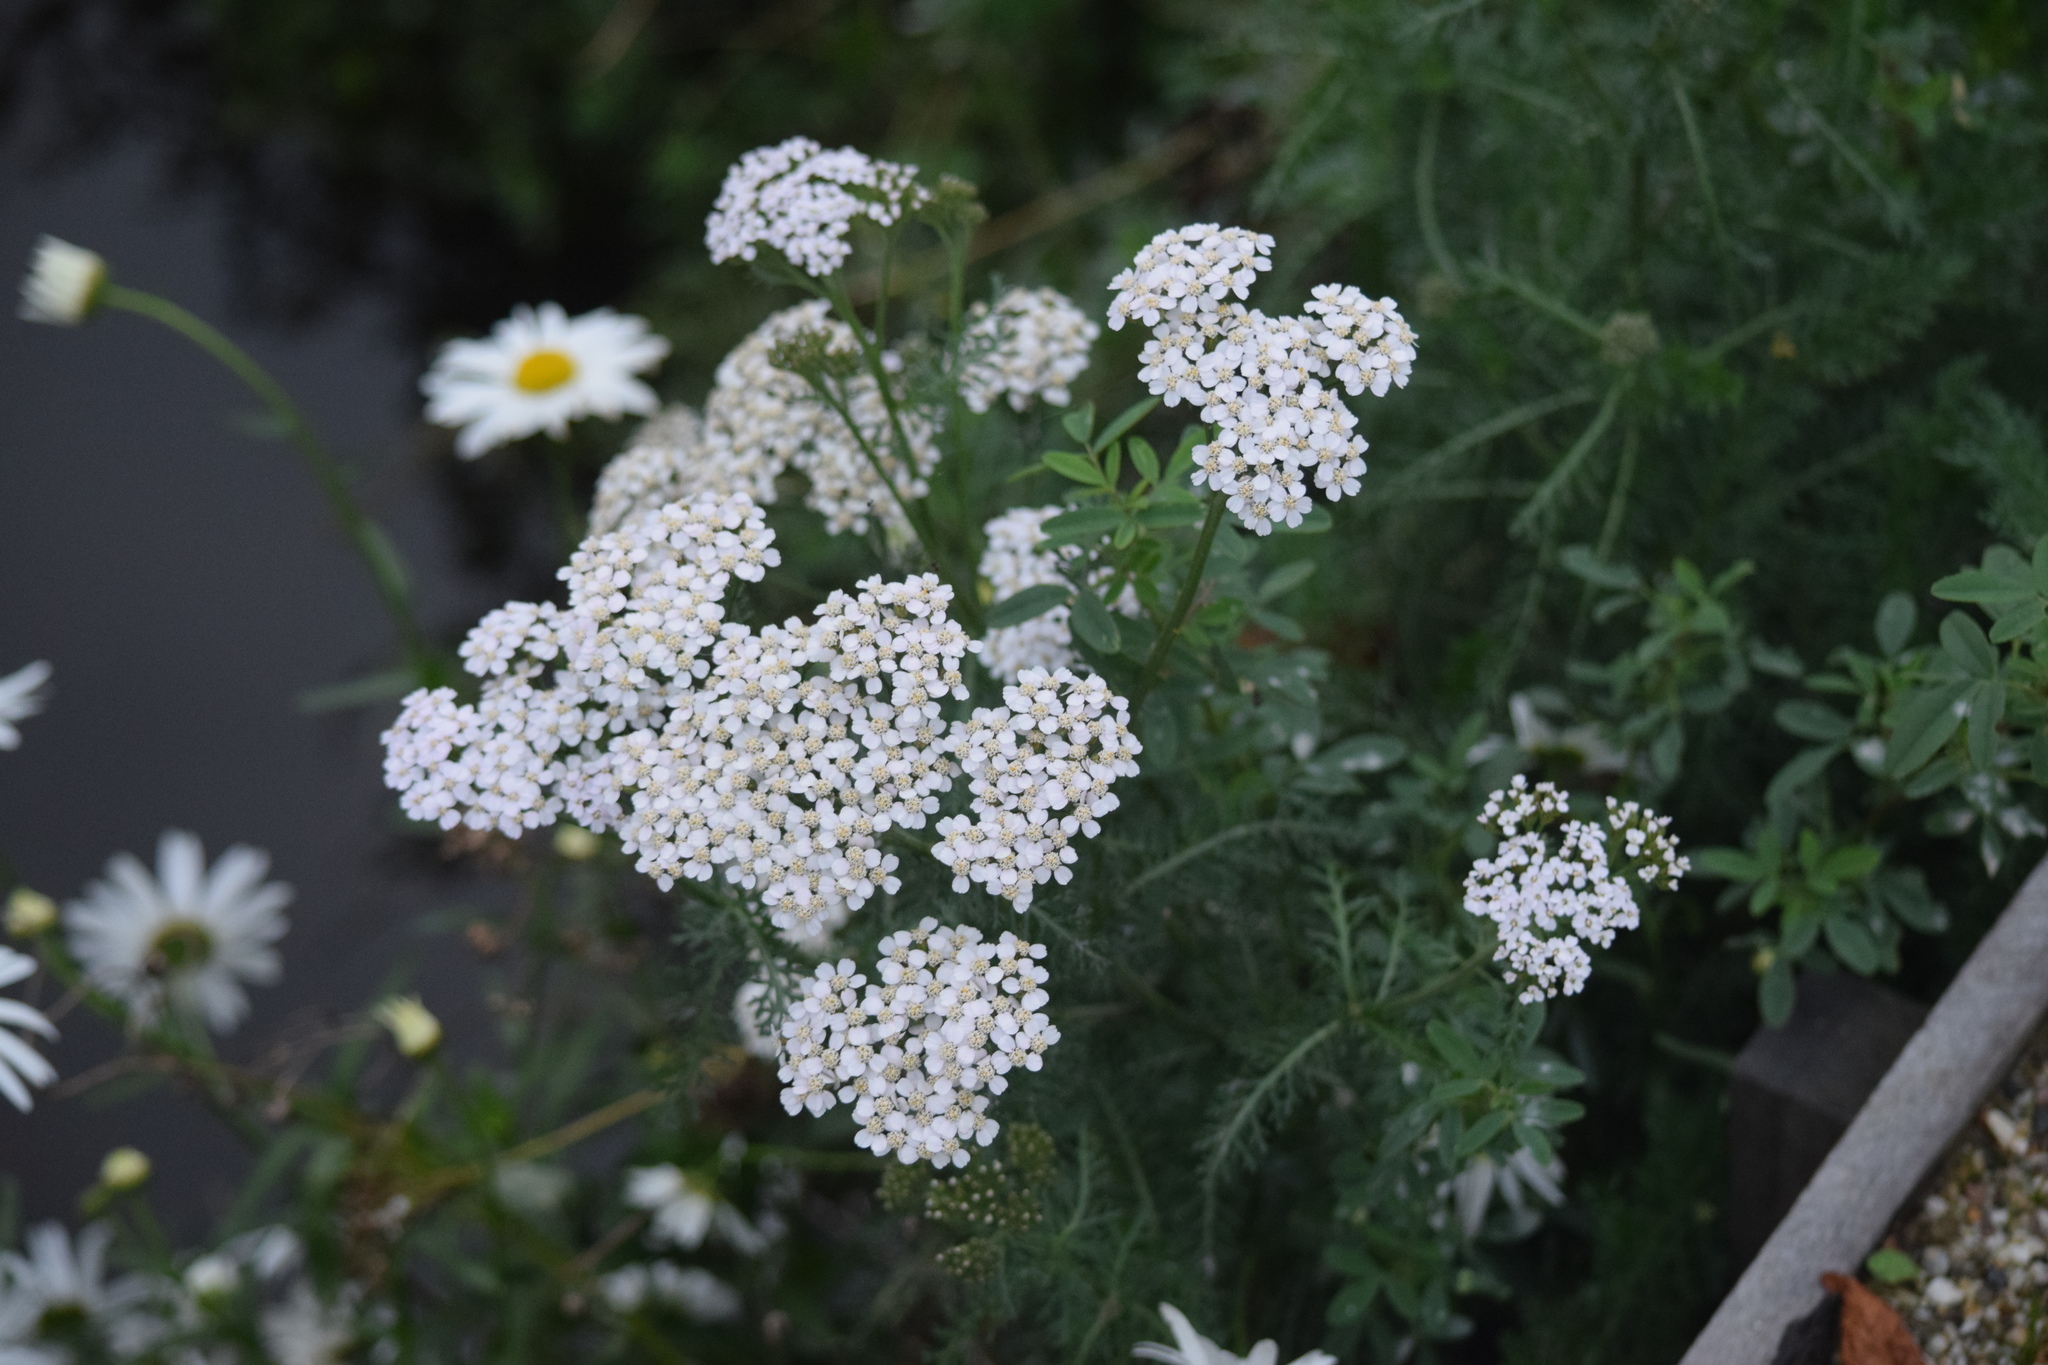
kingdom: Plantae
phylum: Tracheophyta
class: Magnoliopsida
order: Asterales
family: Asteraceae
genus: Achillea
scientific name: Achillea millefolium
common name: Yarrow
